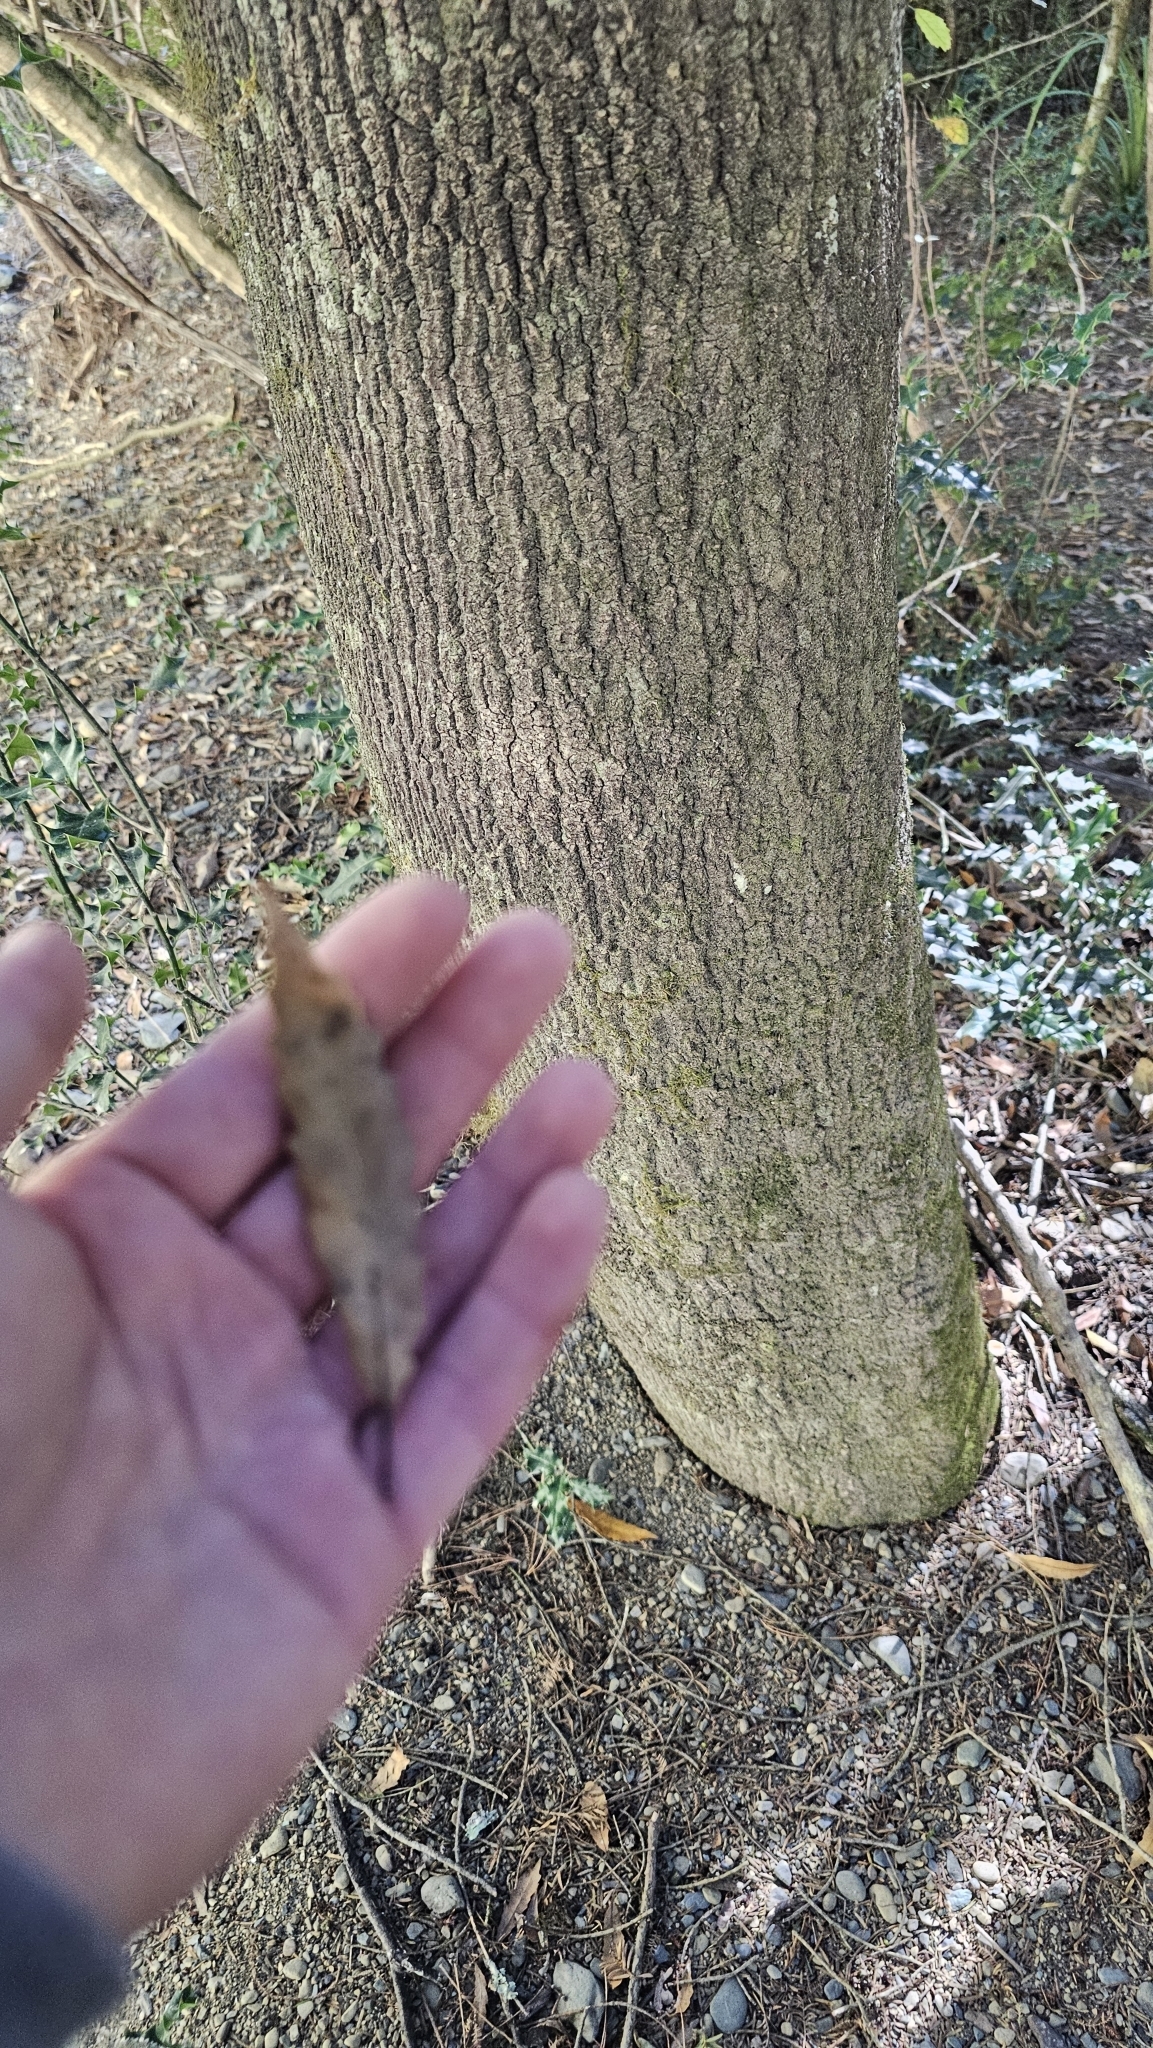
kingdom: Plantae
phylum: Tracheophyta
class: Magnoliopsida
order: Oxalidales
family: Elaeocarpaceae
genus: Elaeocarpus
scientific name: Elaeocarpus hookerianus
